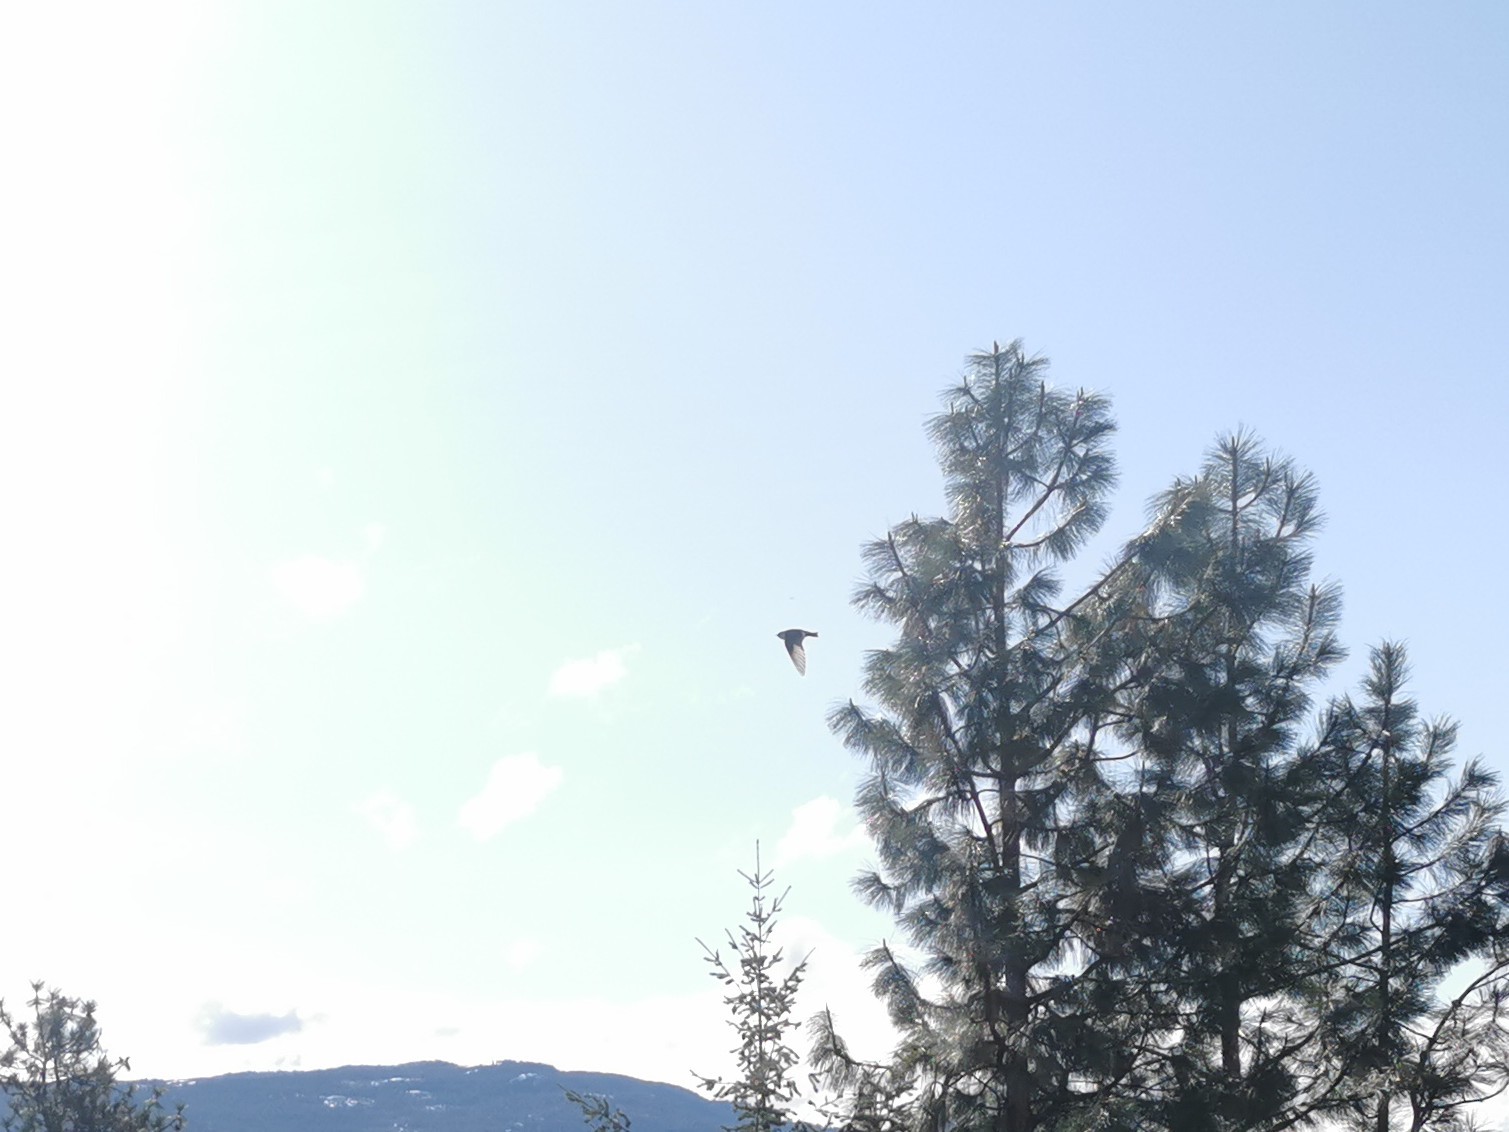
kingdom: Animalia
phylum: Chordata
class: Aves
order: Passeriformes
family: Hirundinidae
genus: Tachycineta
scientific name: Tachycineta thalassina
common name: Violet-green swallow
